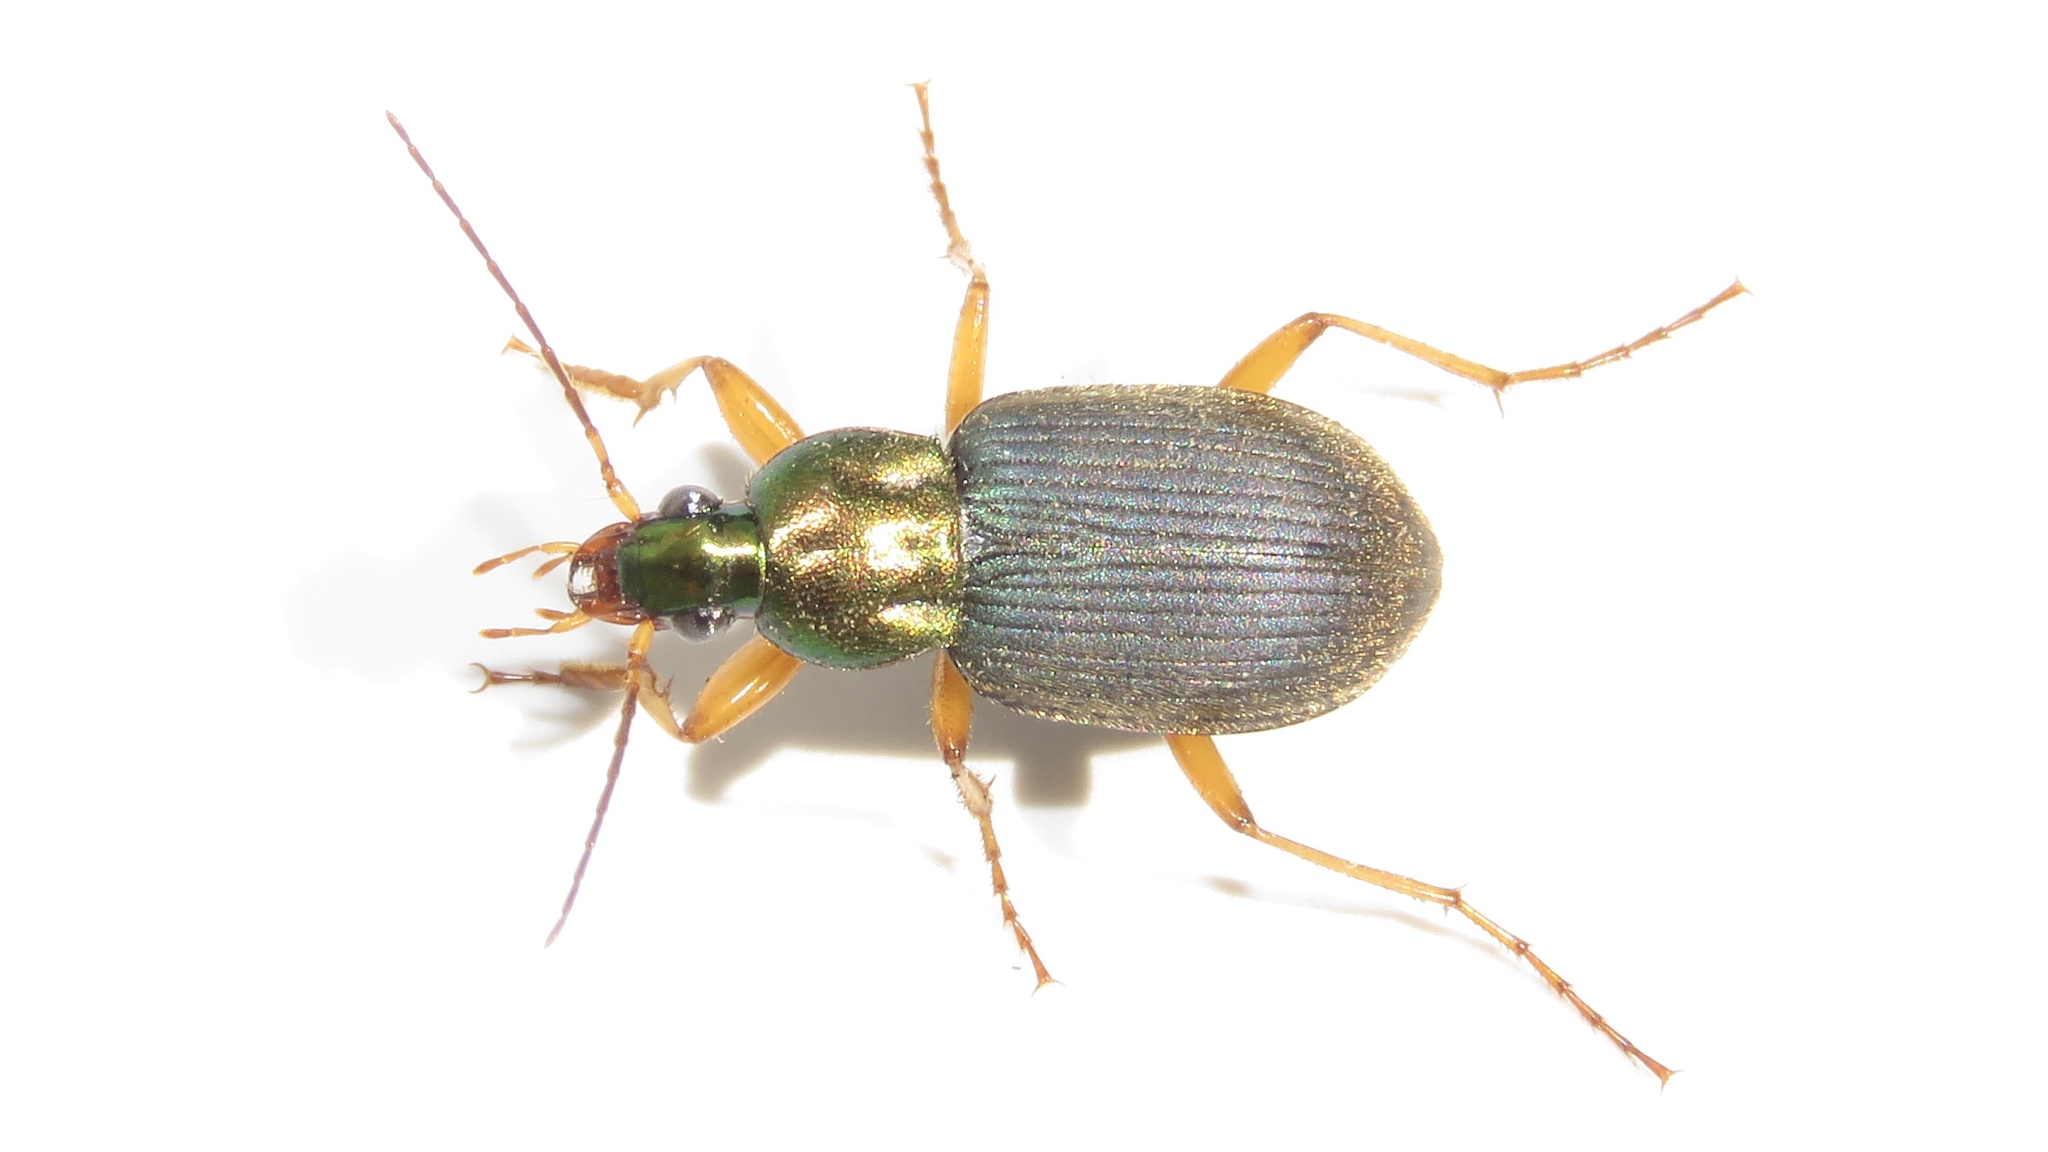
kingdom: Animalia
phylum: Arthropoda
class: Insecta
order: Coleoptera
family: Carabidae
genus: Chlaenius
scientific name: Chlaenius tricolor
